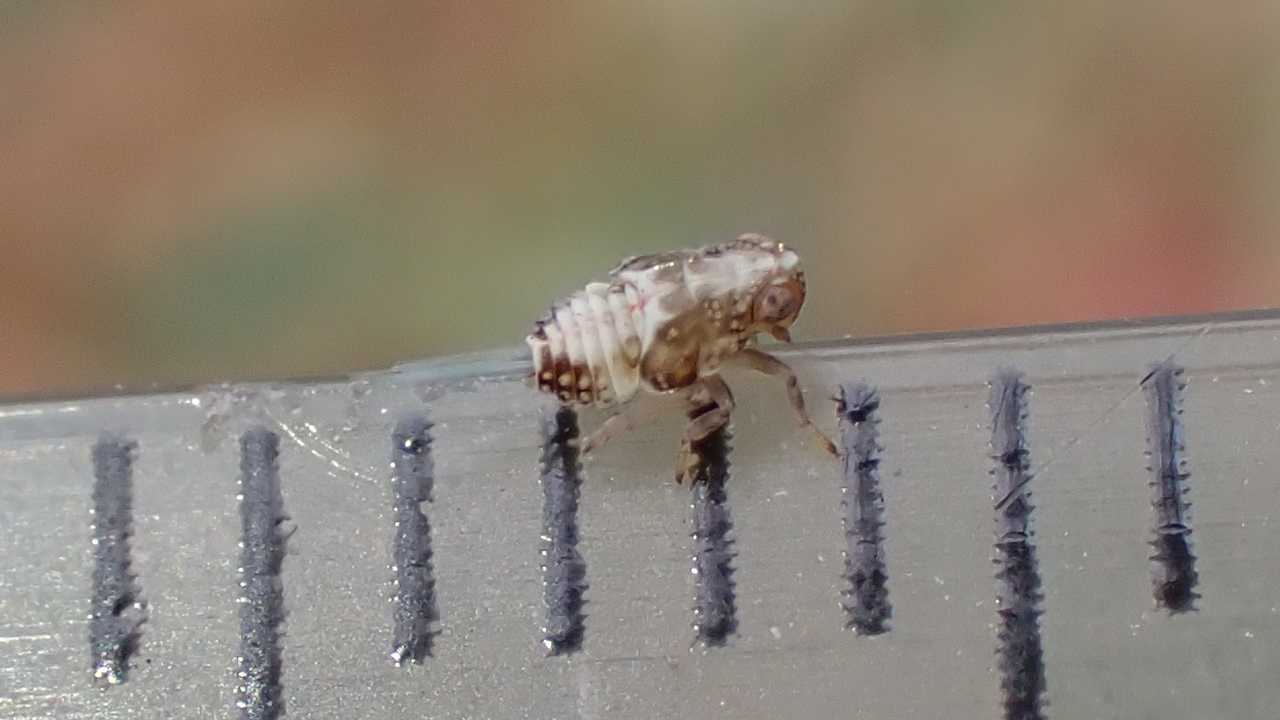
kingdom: Animalia
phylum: Arthropoda
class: Insecta
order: Hemiptera
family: Issidae
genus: Issus
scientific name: Issus
